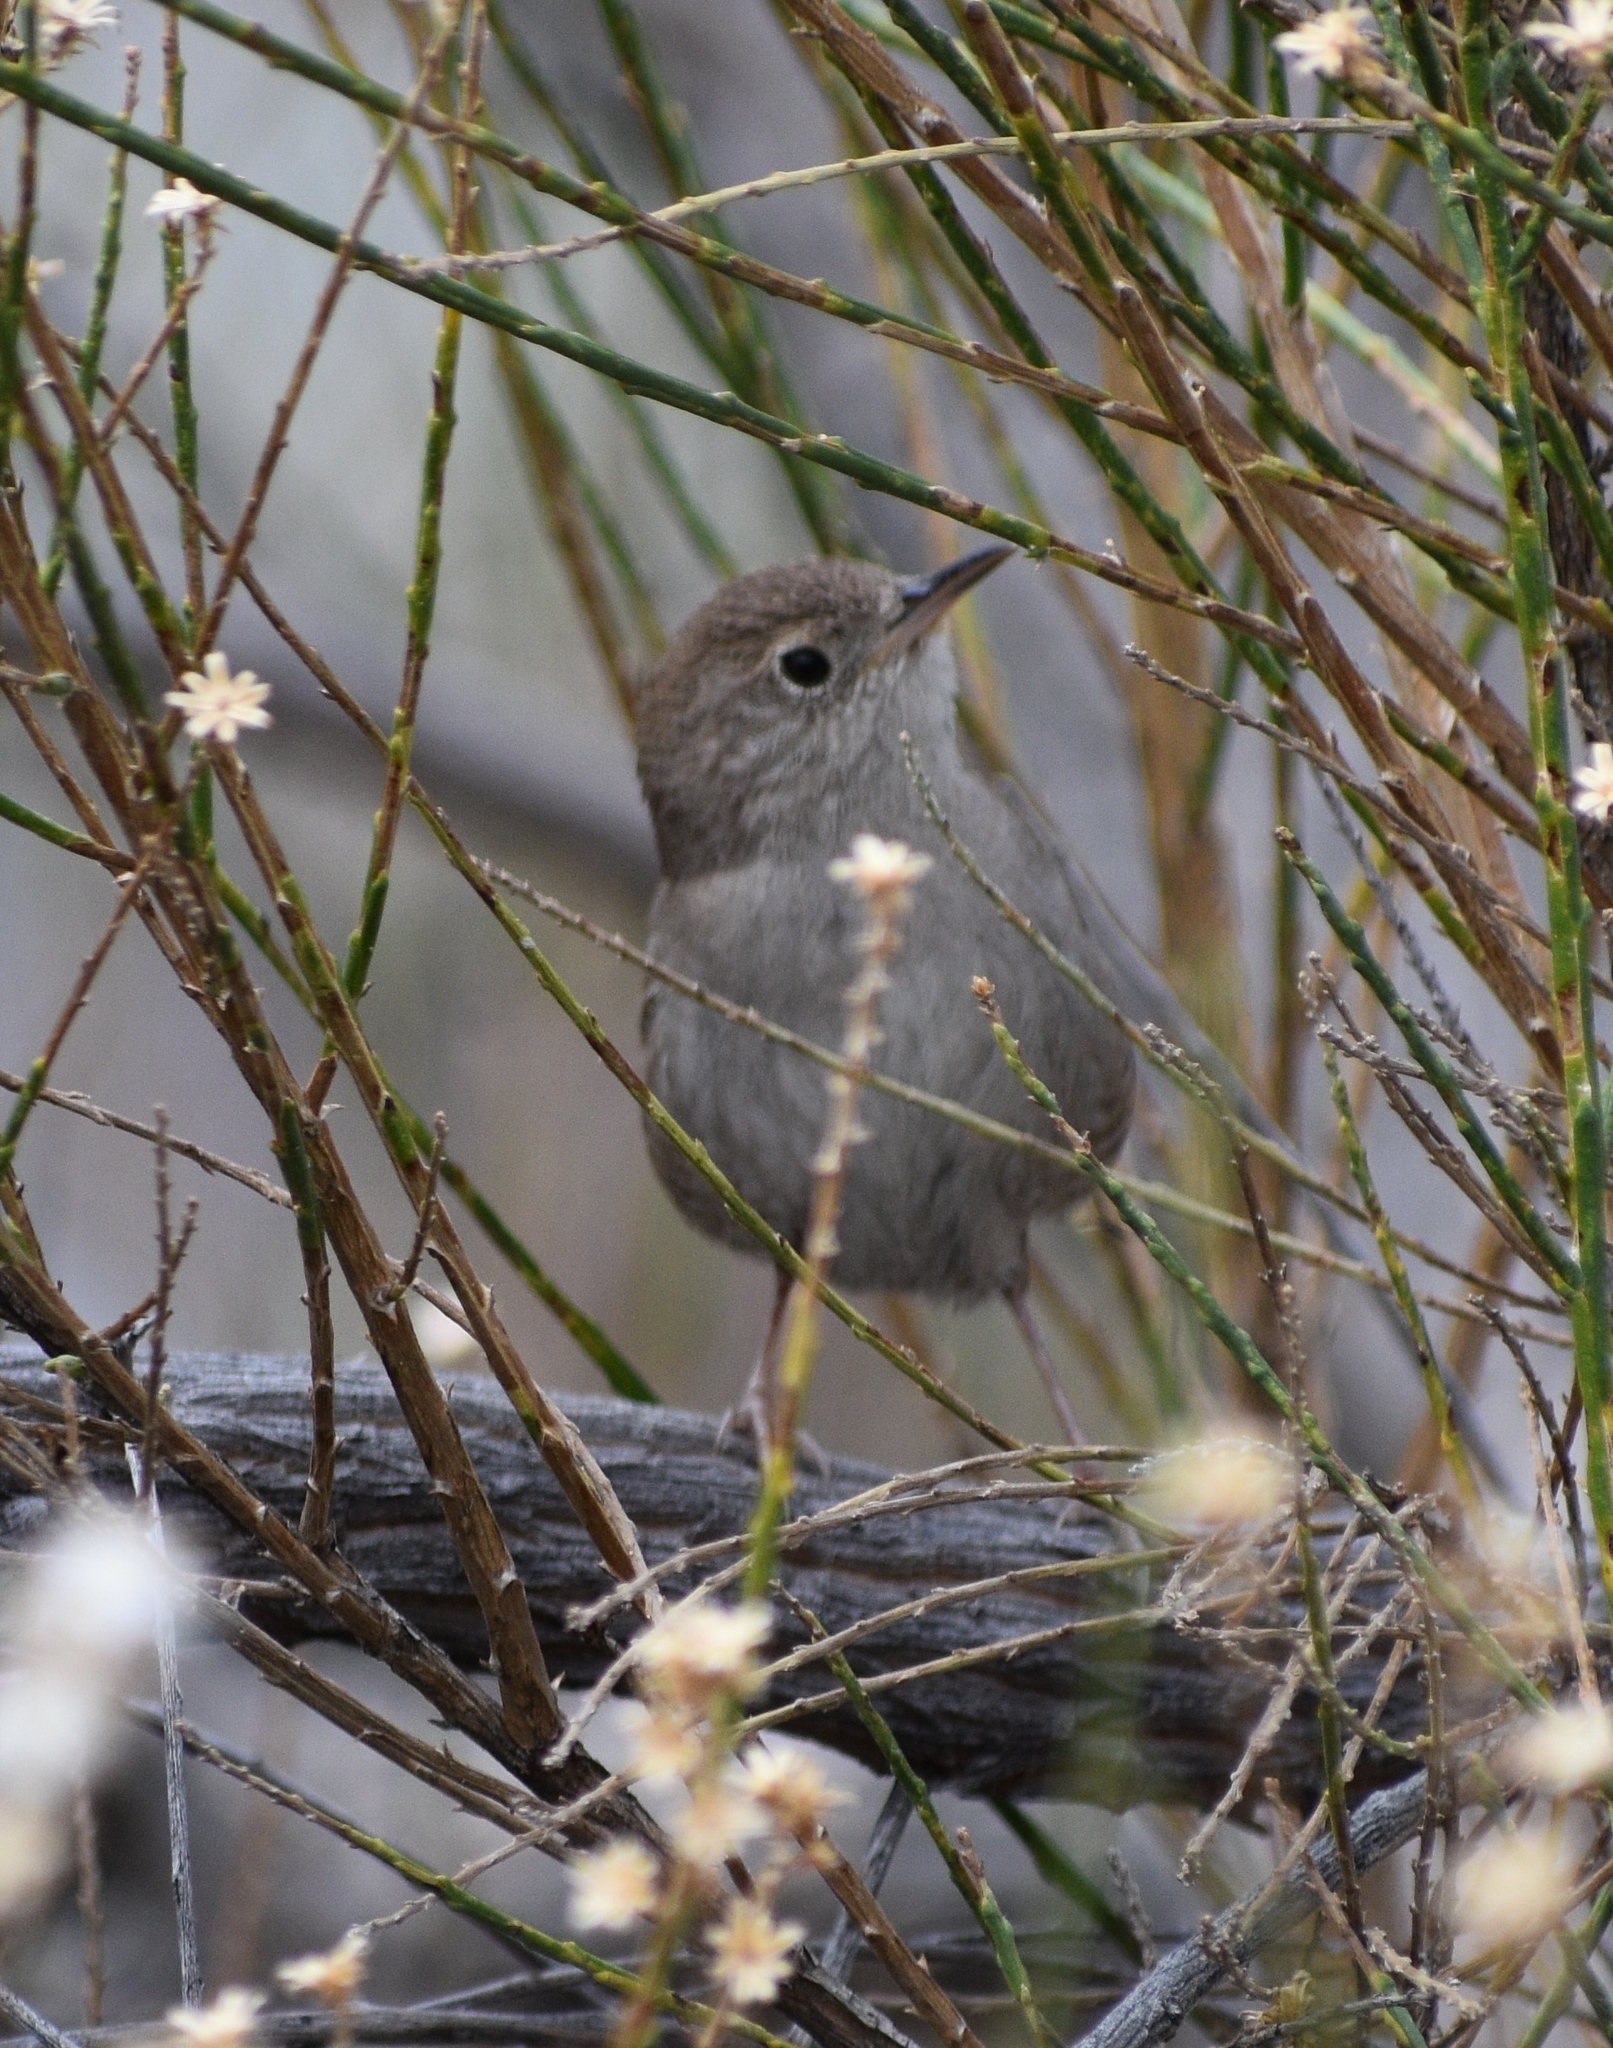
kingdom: Animalia
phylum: Chordata
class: Aves
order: Passeriformes
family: Troglodytidae
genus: Troglodytes
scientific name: Troglodytes aedon
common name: House wren
